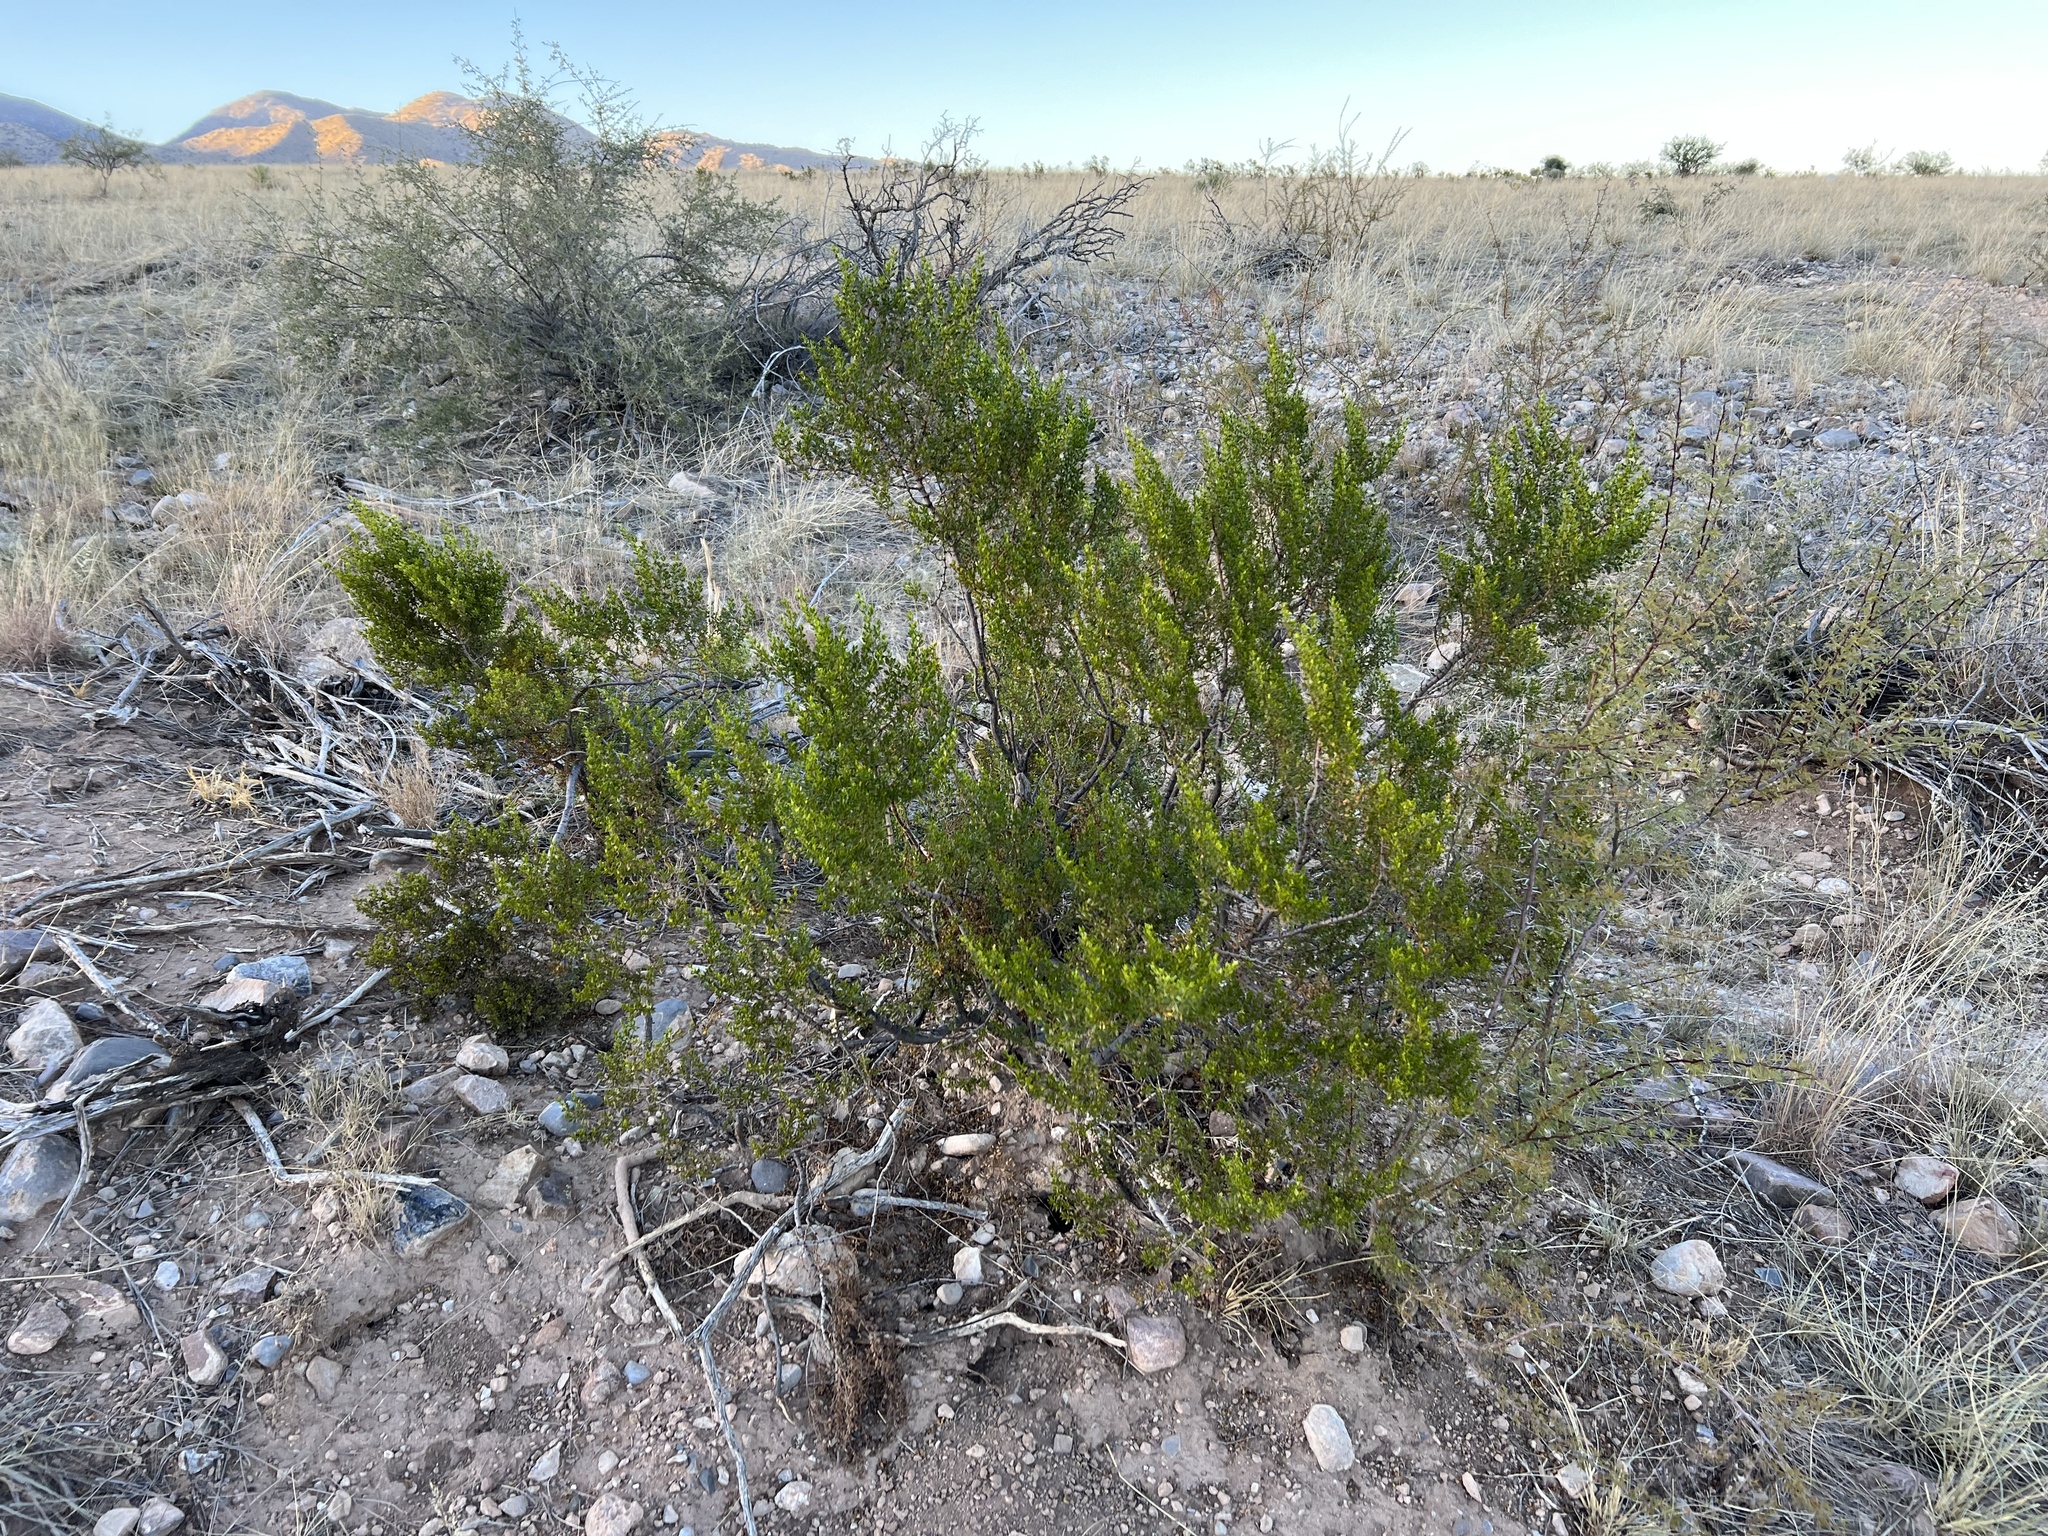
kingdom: Plantae
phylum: Tracheophyta
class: Magnoliopsida
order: Zygophyllales
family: Zygophyllaceae
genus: Larrea
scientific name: Larrea tridentata
